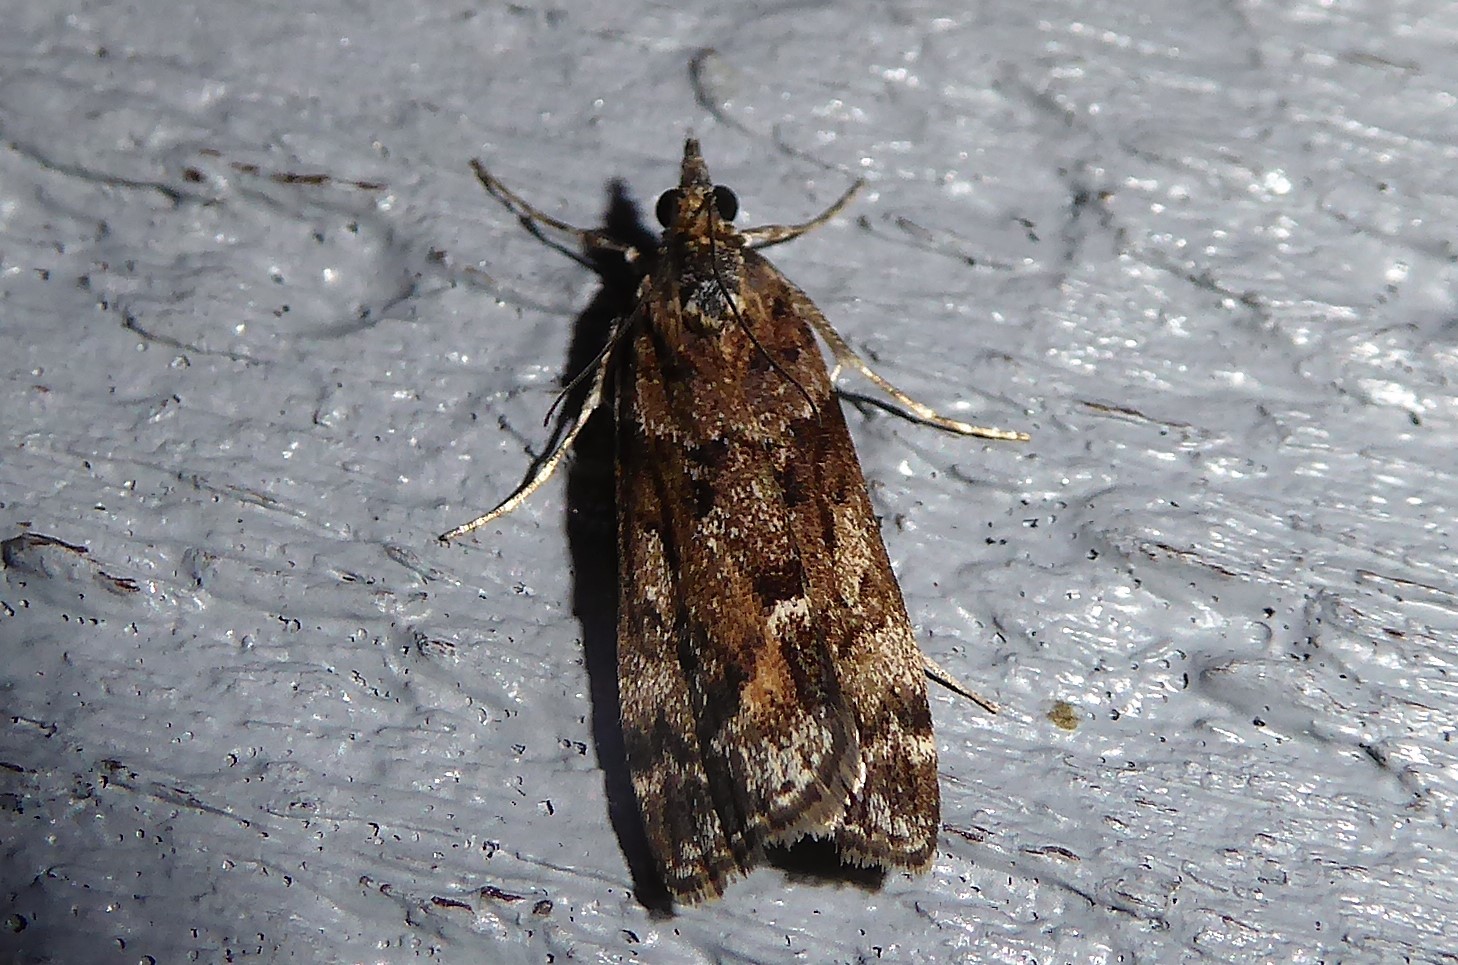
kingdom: Animalia
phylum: Arthropoda
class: Insecta
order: Lepidoptera
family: Crambidae
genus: Eudonia
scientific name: Eudonia submarginalis
